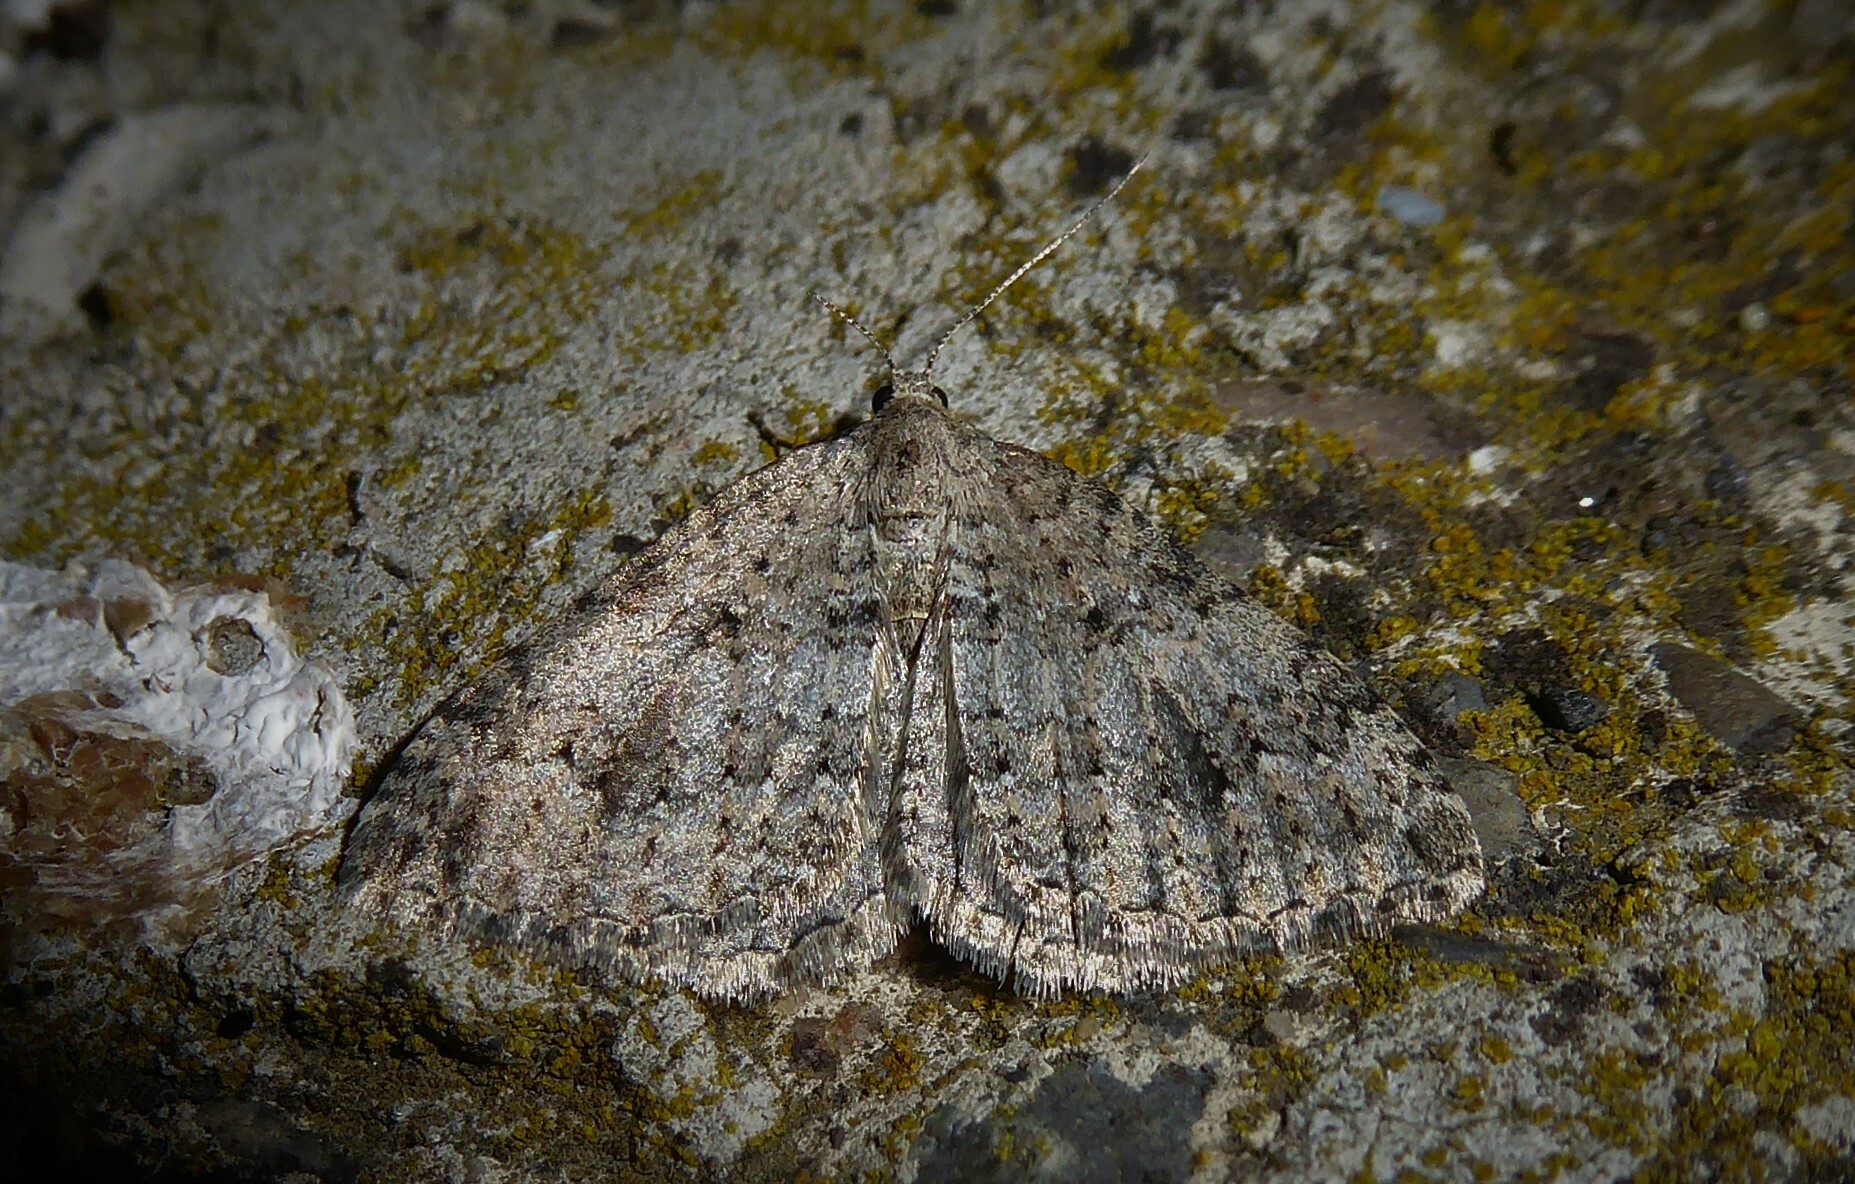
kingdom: Animalia
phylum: Arthropoda
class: Insecta
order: Lepidoptera
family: Geometridae
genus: Helastia
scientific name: Helastia corcularia
